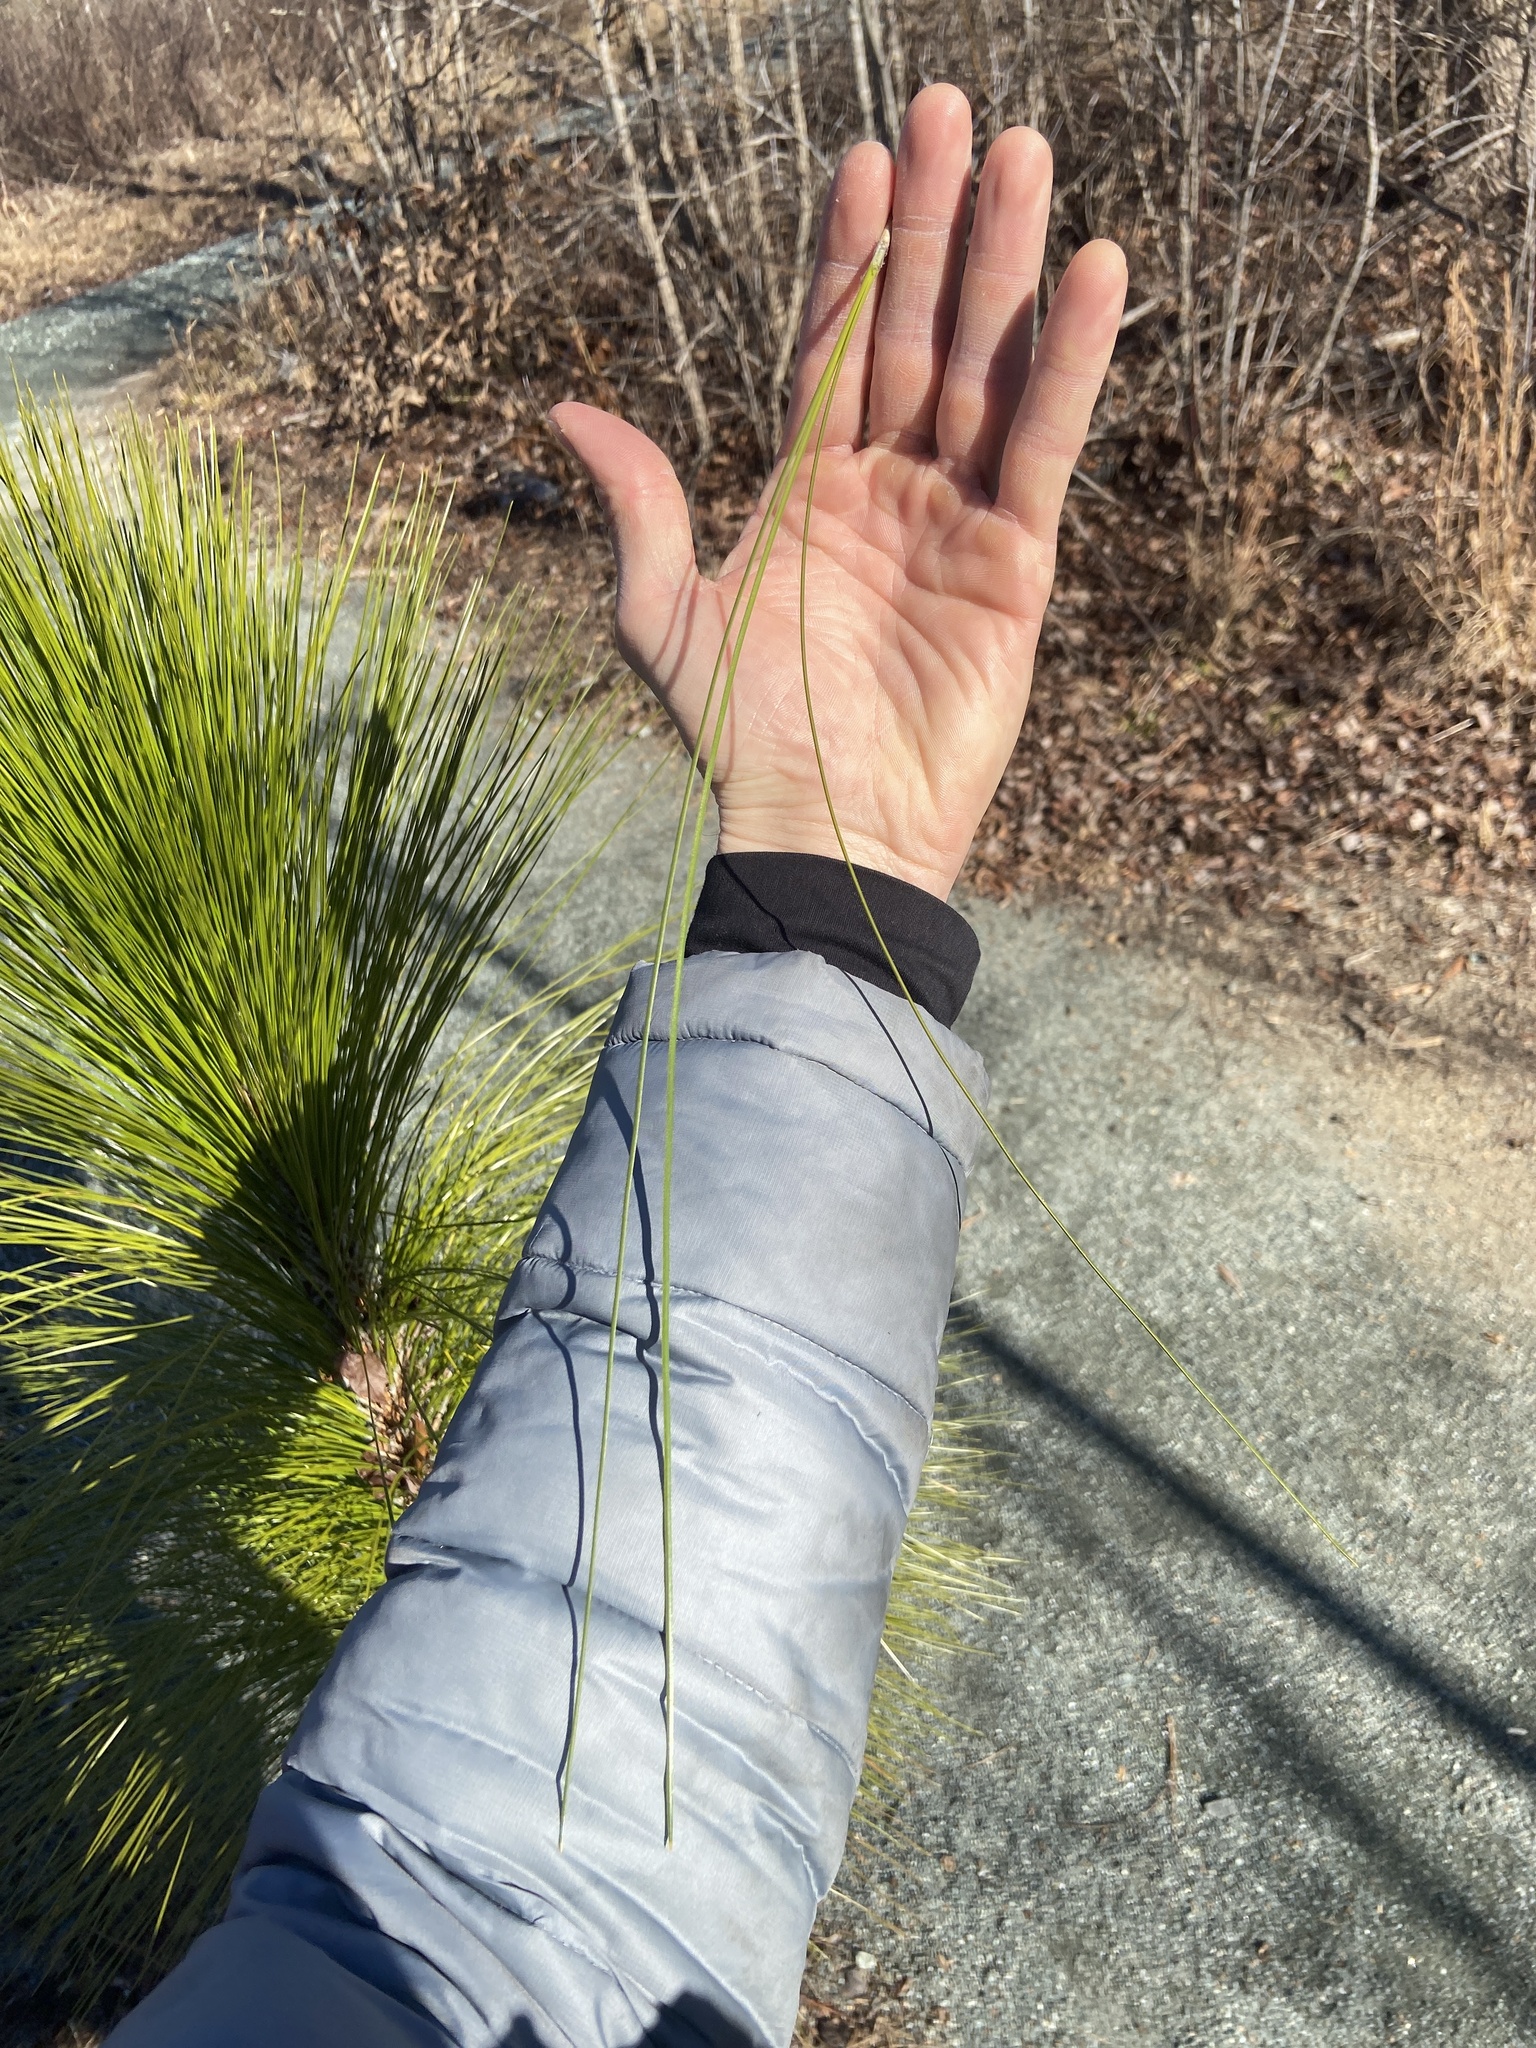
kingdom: Plantae
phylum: Tracheophyta
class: Pinopsida
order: Pinales
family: Pinaceae
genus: Pinus
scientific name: Pinus palustris
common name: Longleaf pine
